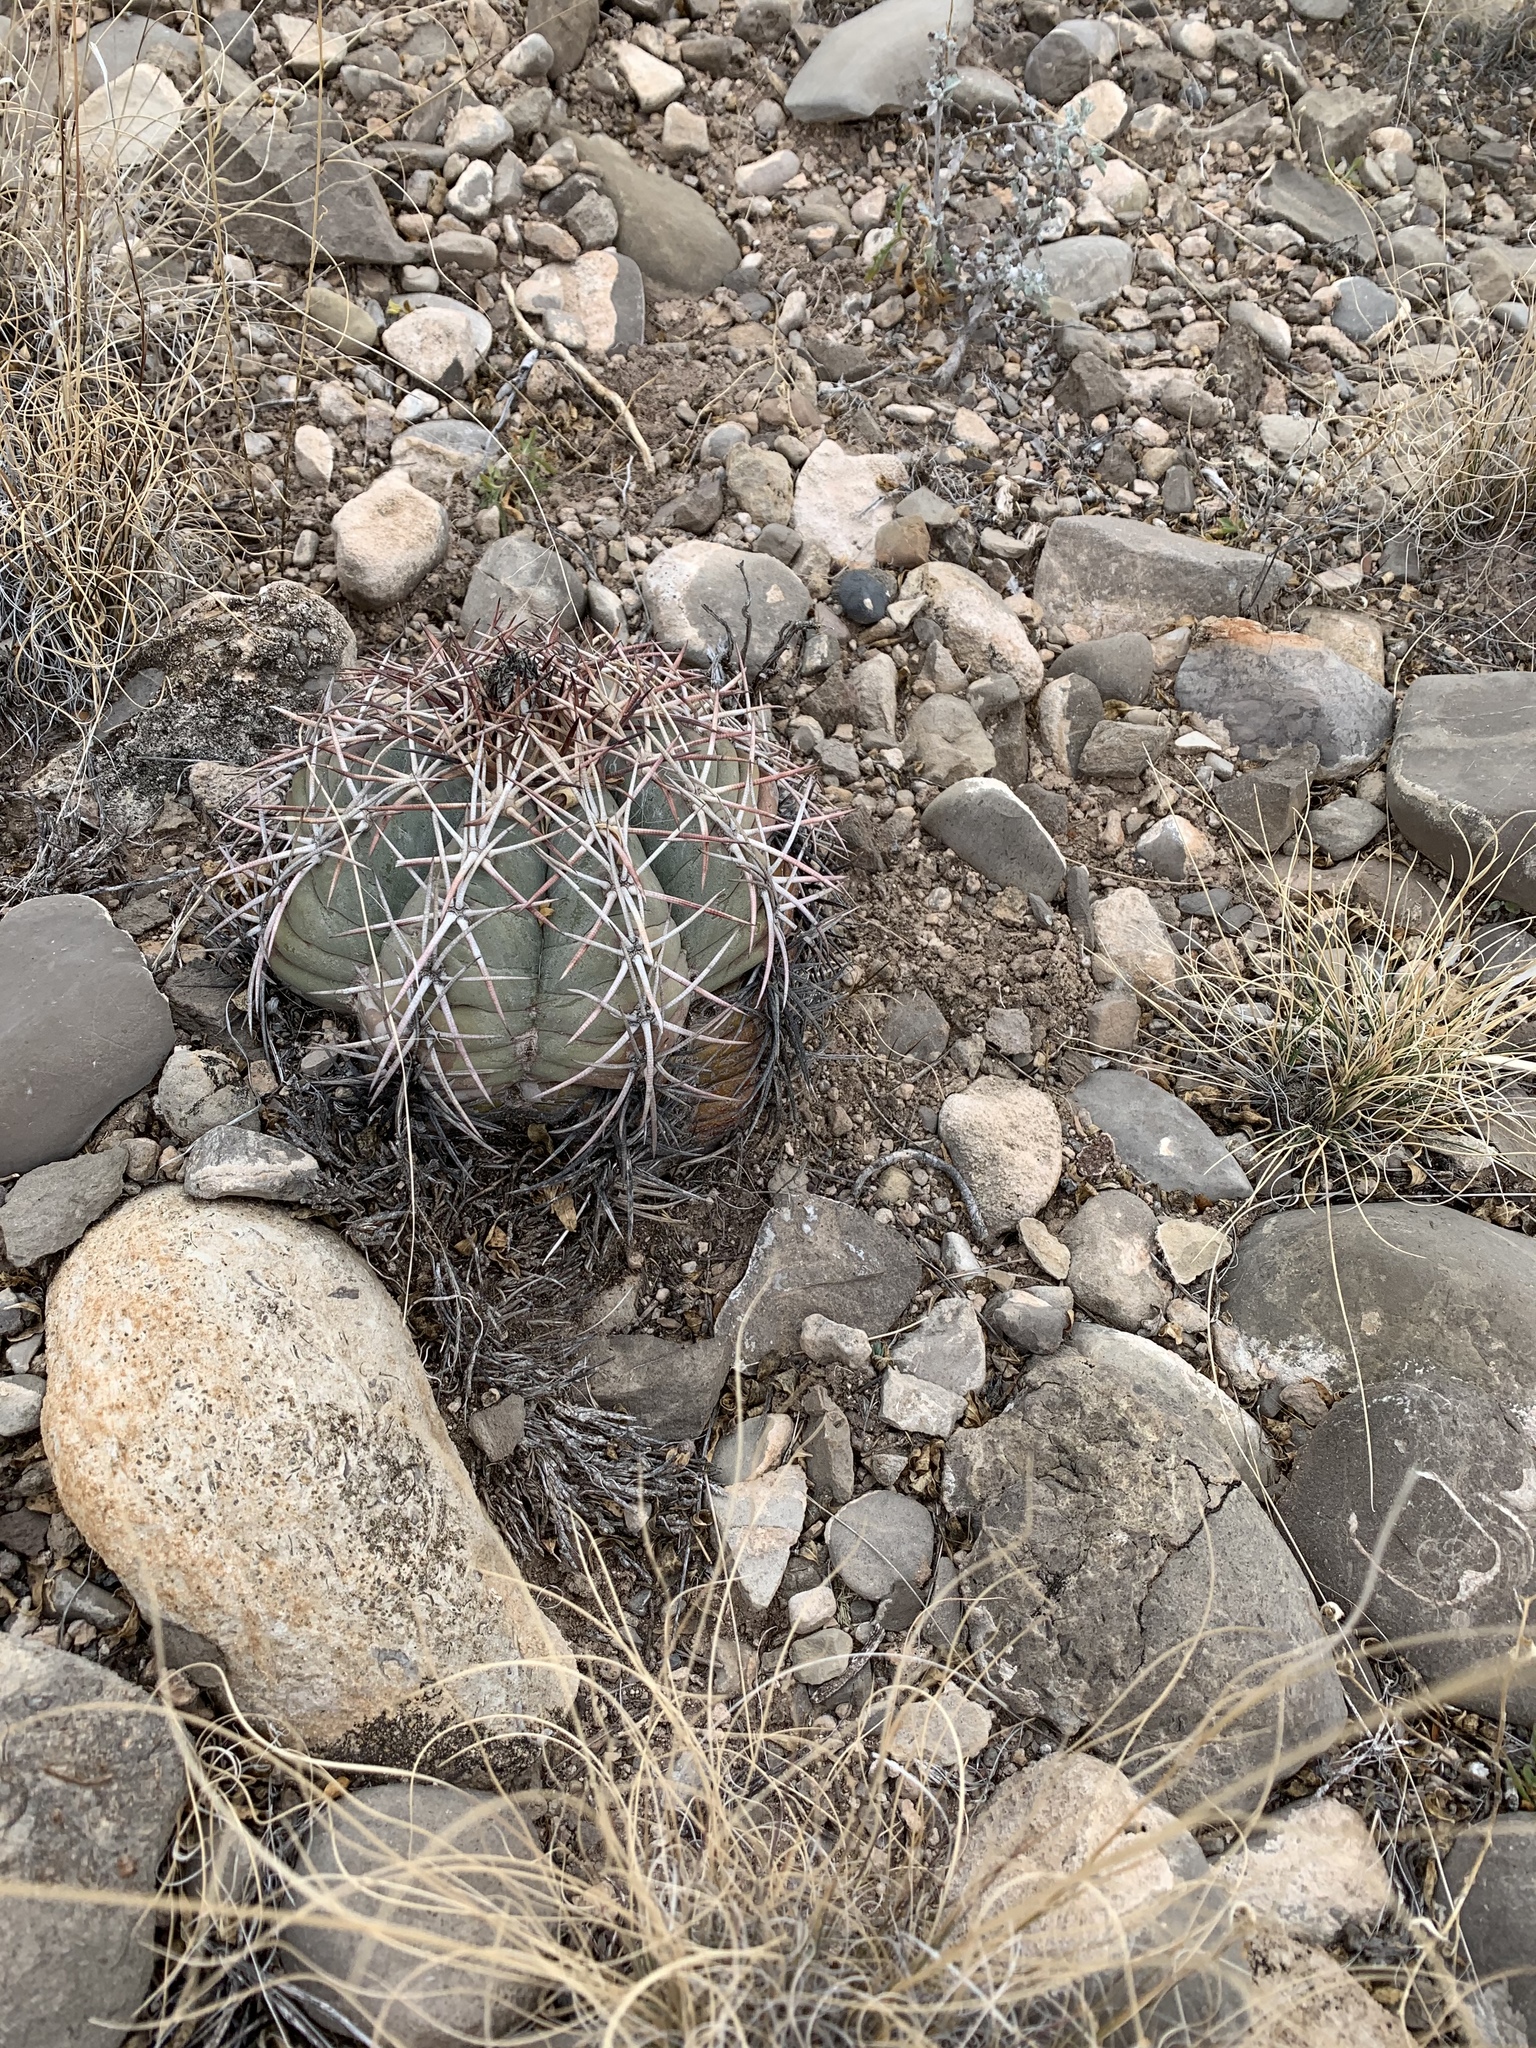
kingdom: Plantae
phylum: Tracheophyta
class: Magnoliopsida
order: Caryophyllales
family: Cactaceae
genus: Echinocactus
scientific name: Echinocactus horizonthalonius
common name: Devilshead
